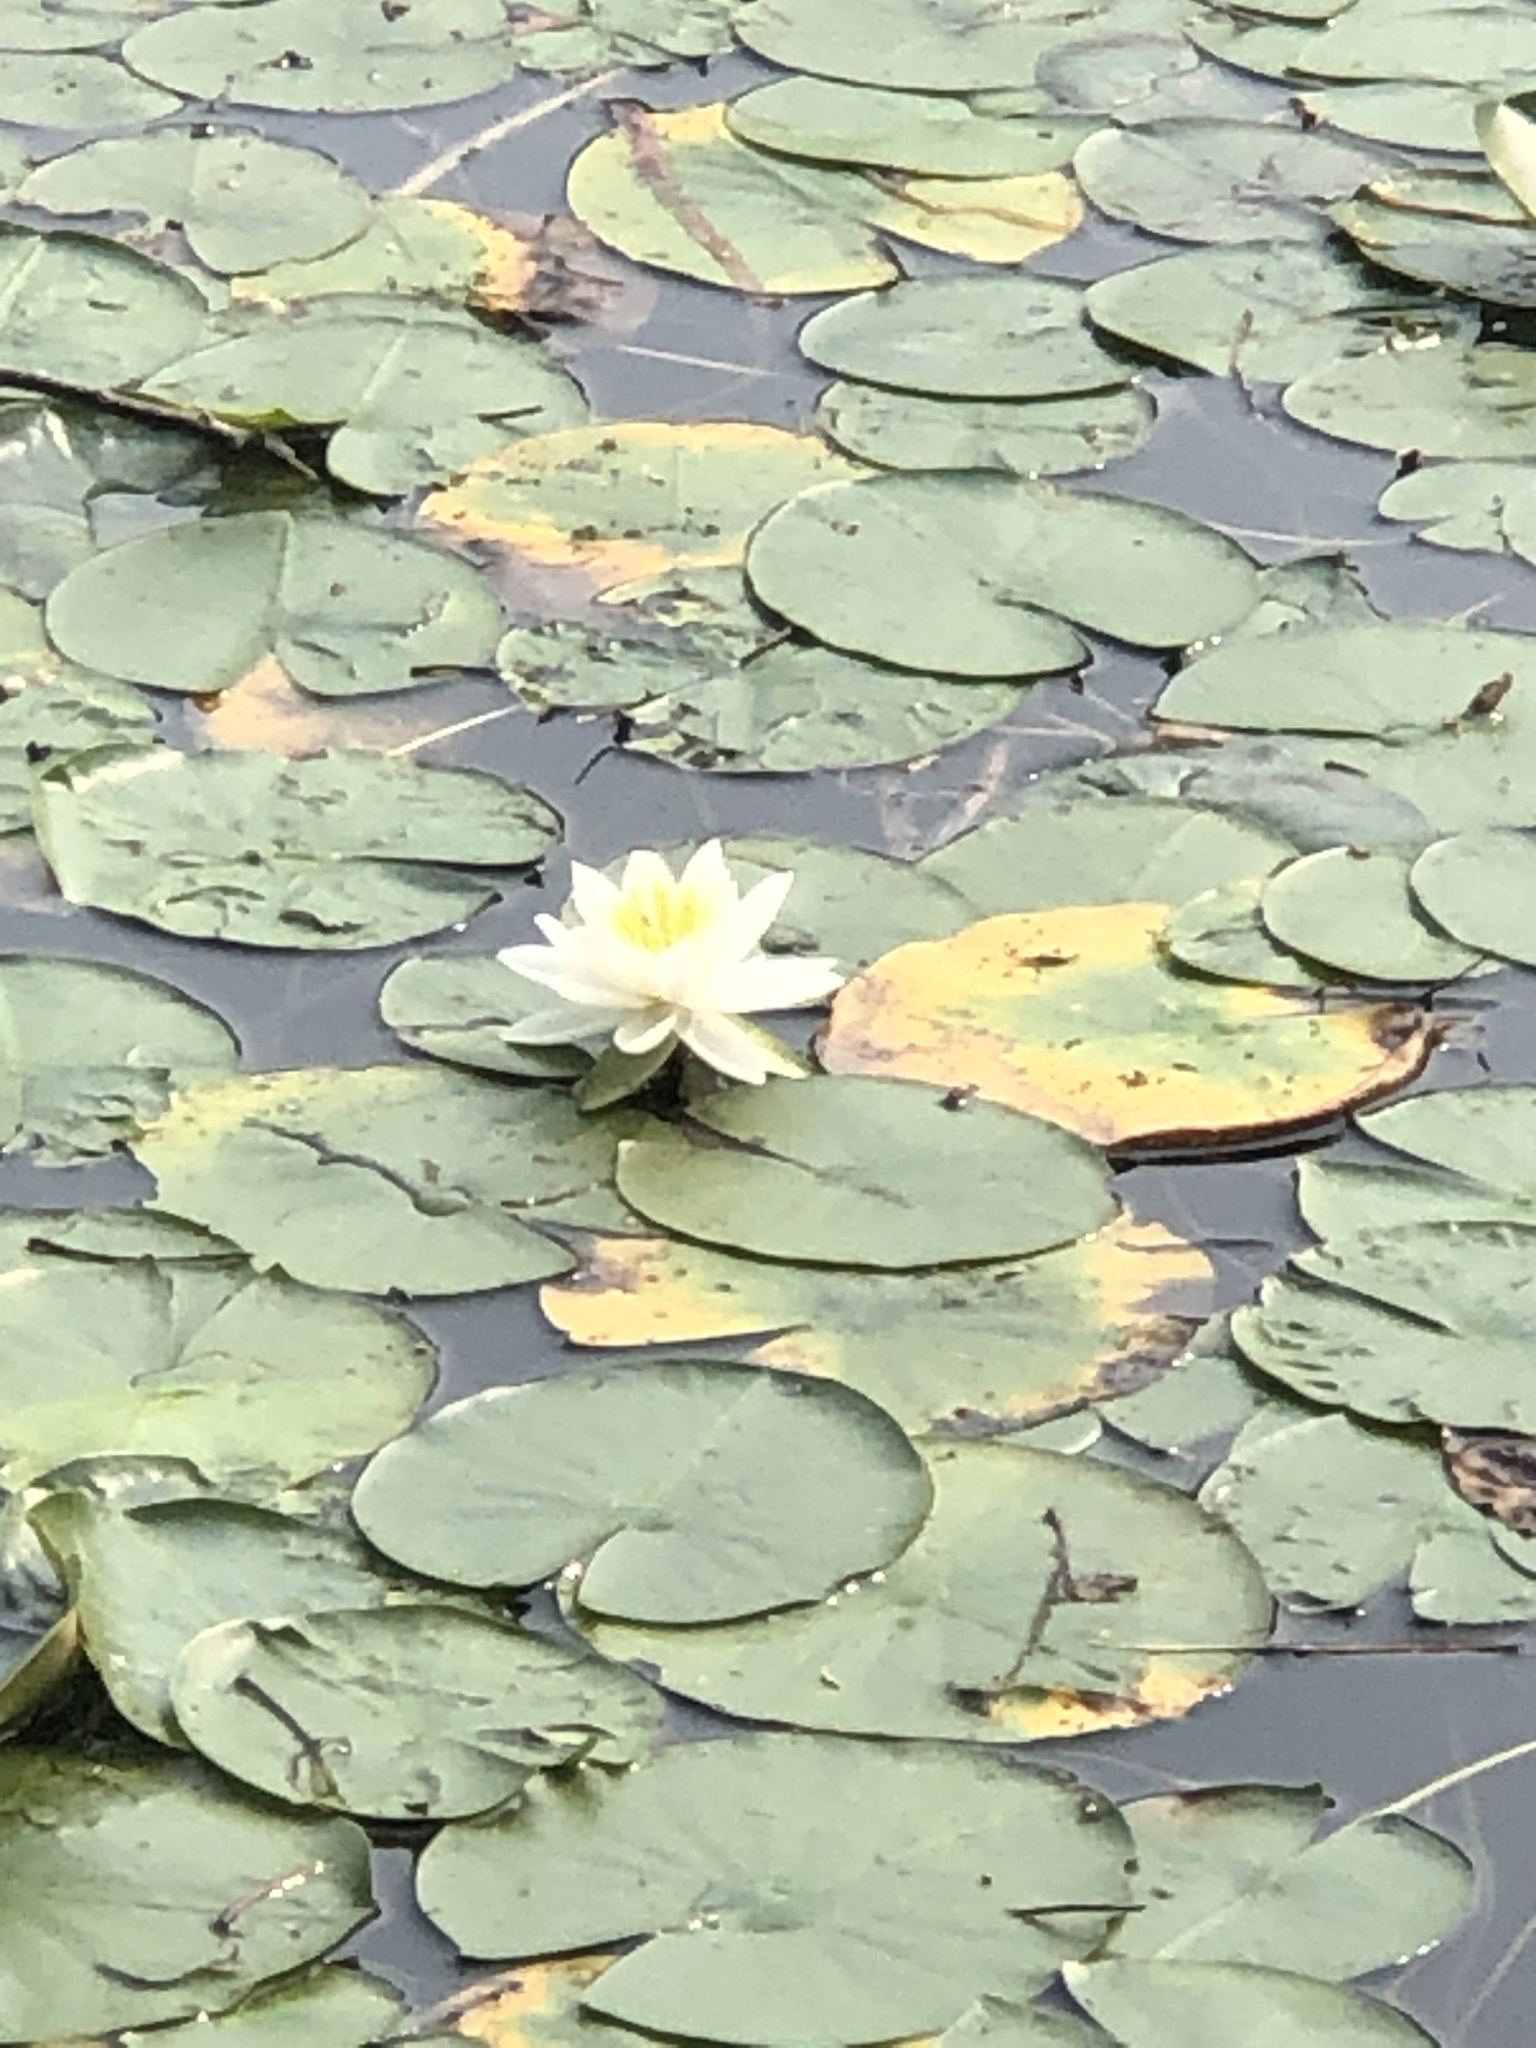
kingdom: Plantae
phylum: Tracheophyta
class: Magnoliopsida
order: Nymphaeales
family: Nymphaeaceae
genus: Nymphaea
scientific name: Nymphaea odorata
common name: Fragrant water-lily
